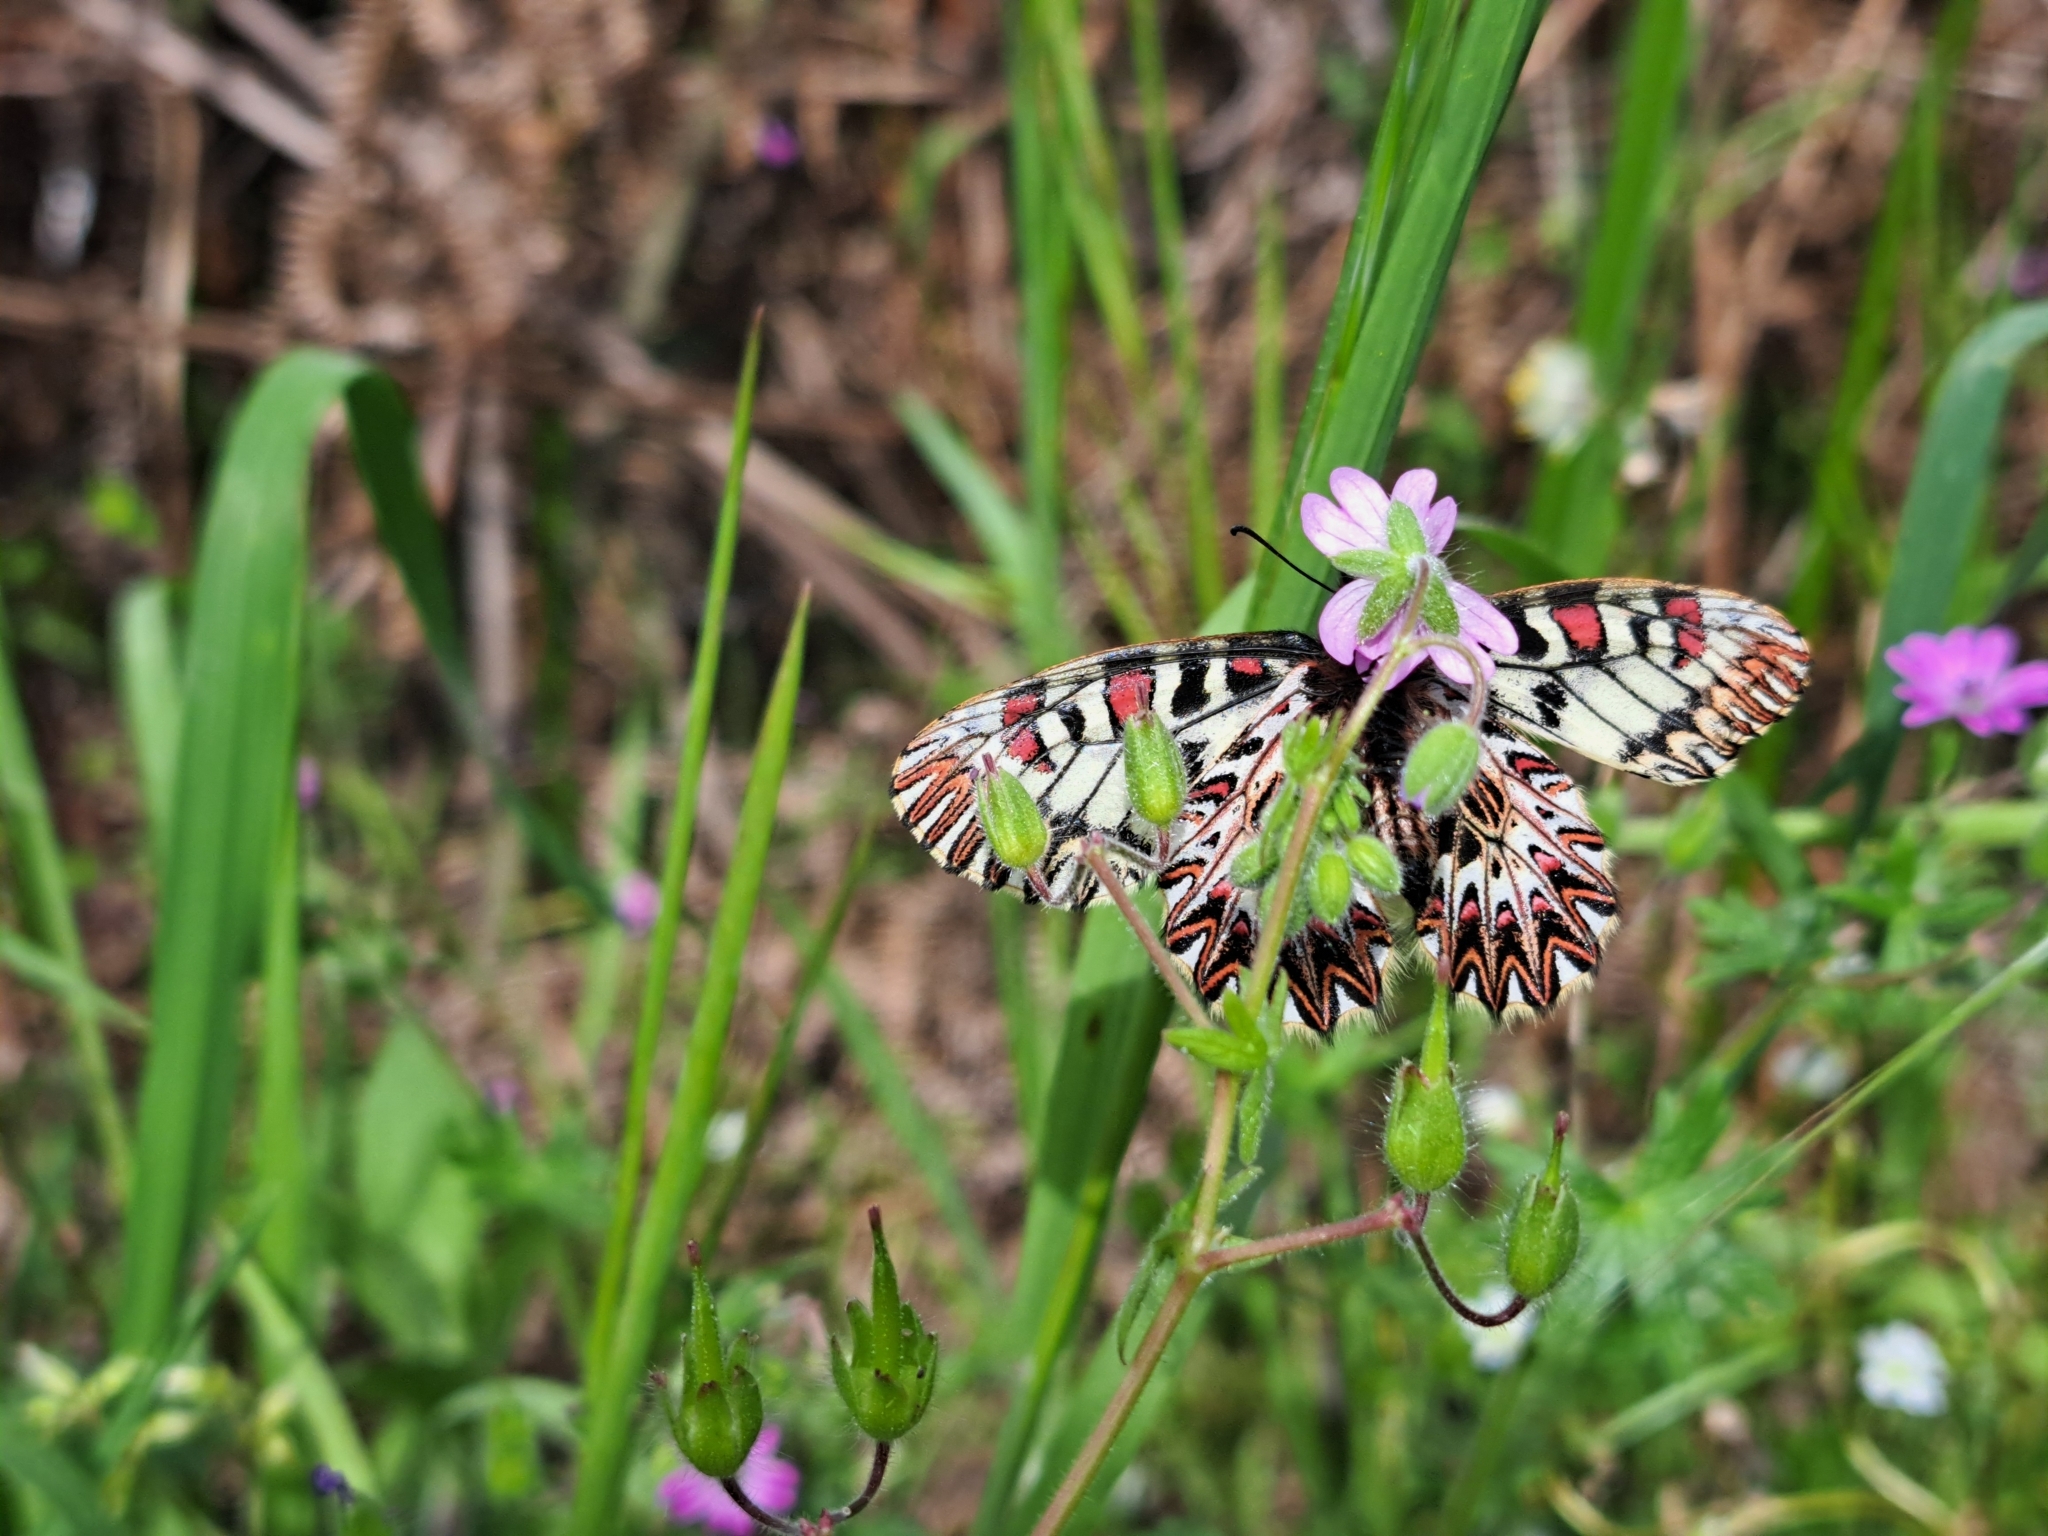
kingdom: Animalia
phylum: Arthropoda
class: Insecta
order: Lepidoptera
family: Papilionidae
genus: Zerynthia
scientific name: Zerynthia cassandra
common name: Italian festoon
